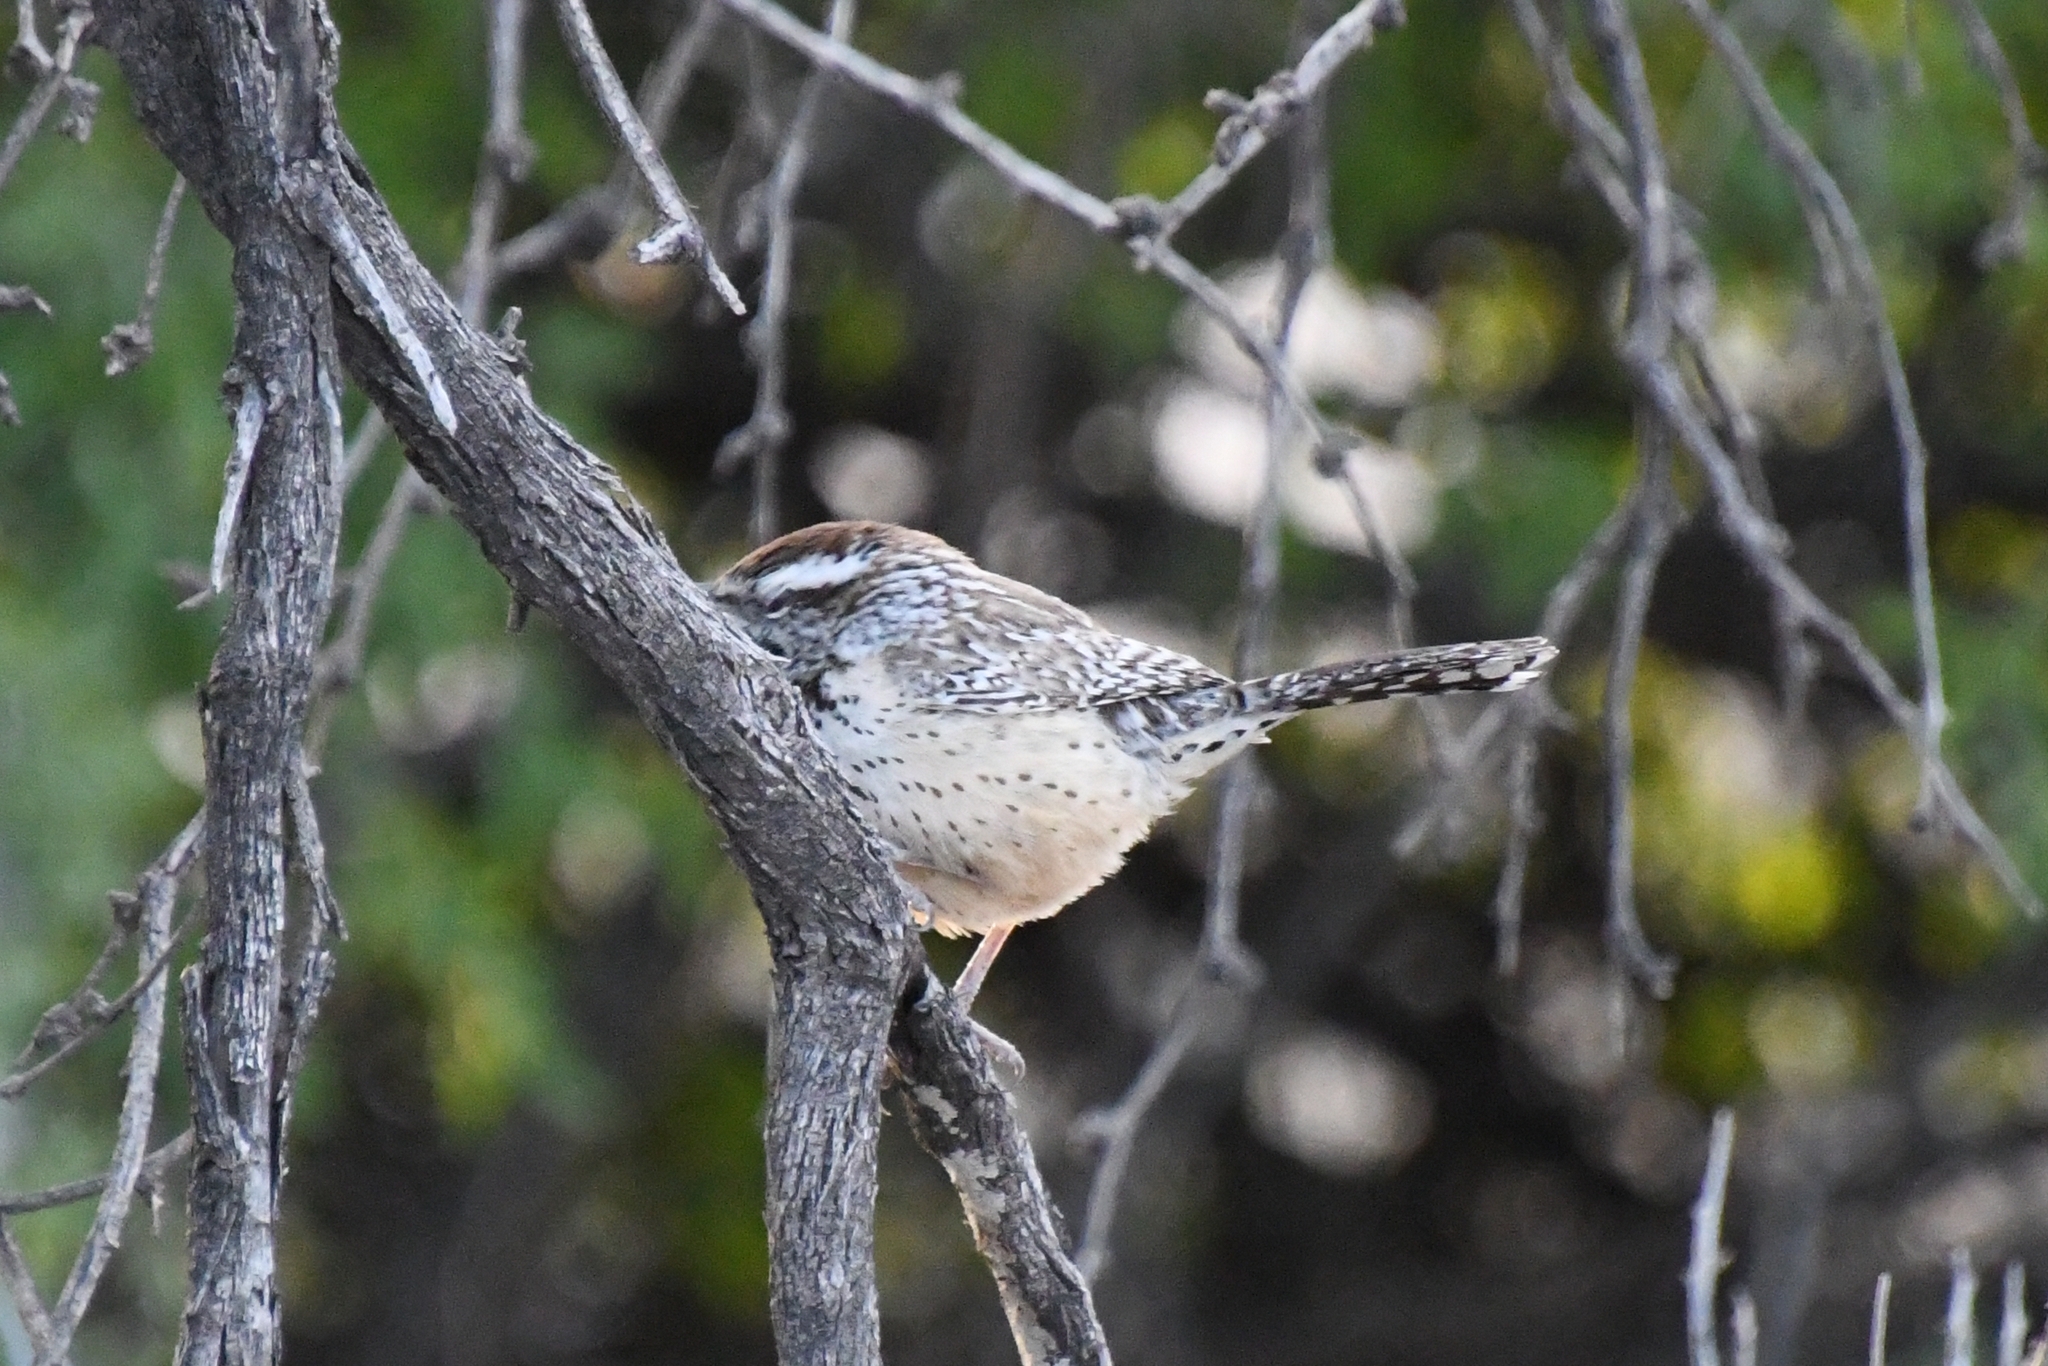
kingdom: Animalia
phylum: Chordata
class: Aves
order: Passeriformes
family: Troglodytidae
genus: Campylorhynchus
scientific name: Campylorhynchus brunneicapillus
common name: Cactus wren
